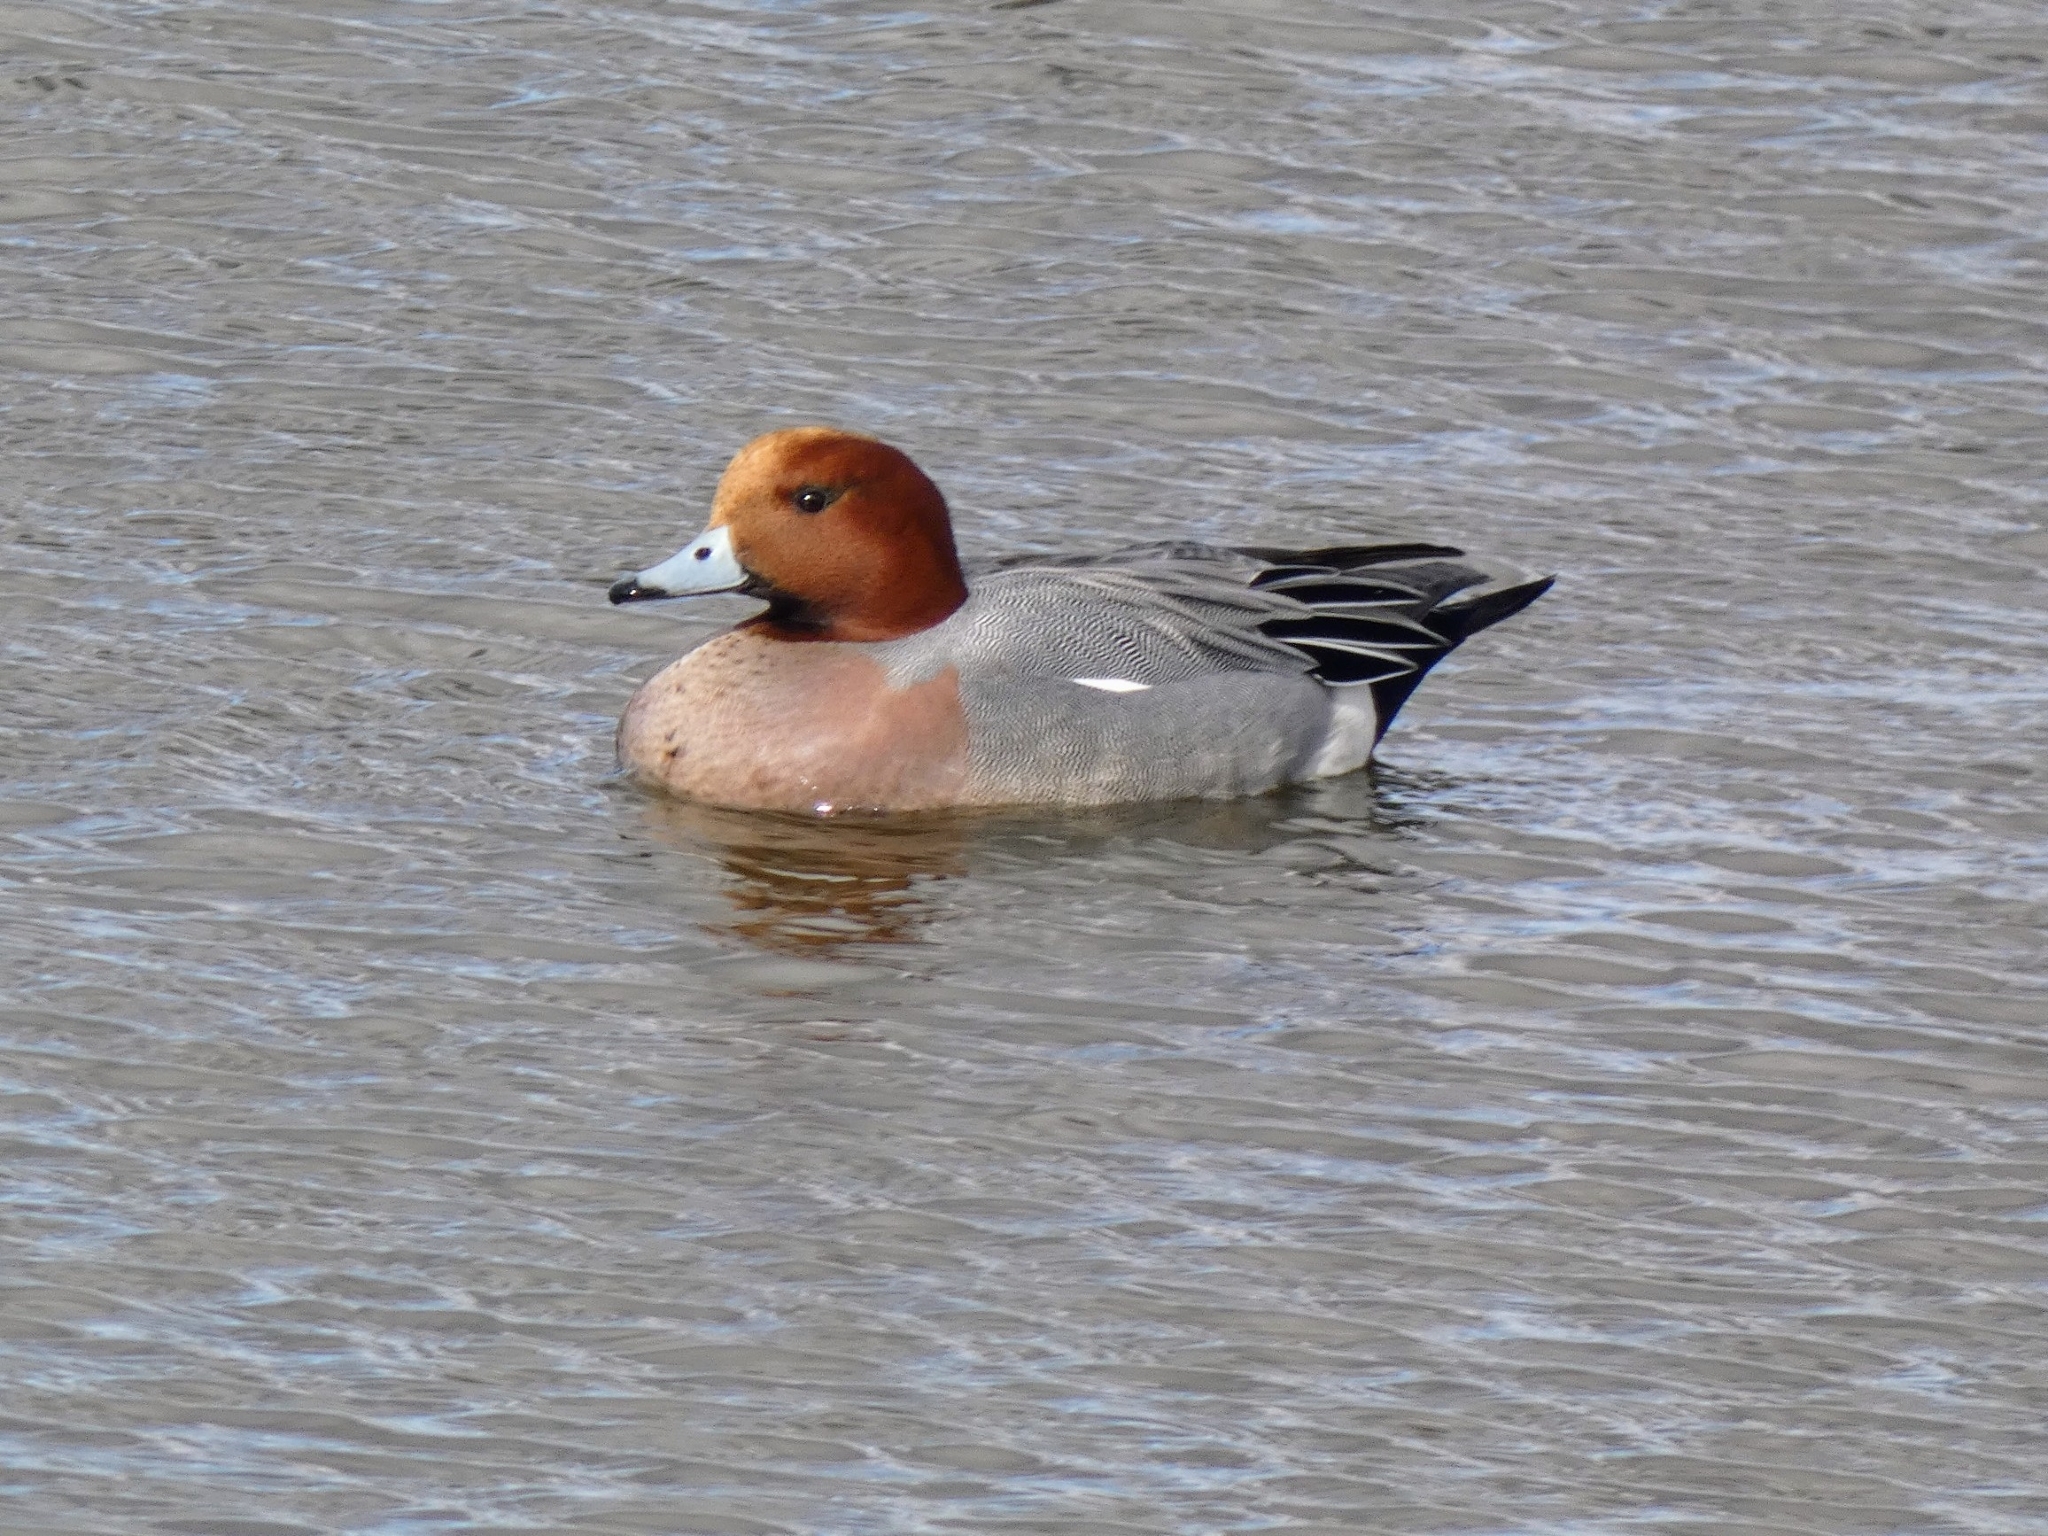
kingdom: Animalia
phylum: Chordata
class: Aves
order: Anseriformes
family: Anatidae
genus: Mareca
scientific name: Mareca penelope
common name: Eurasian wigeon
